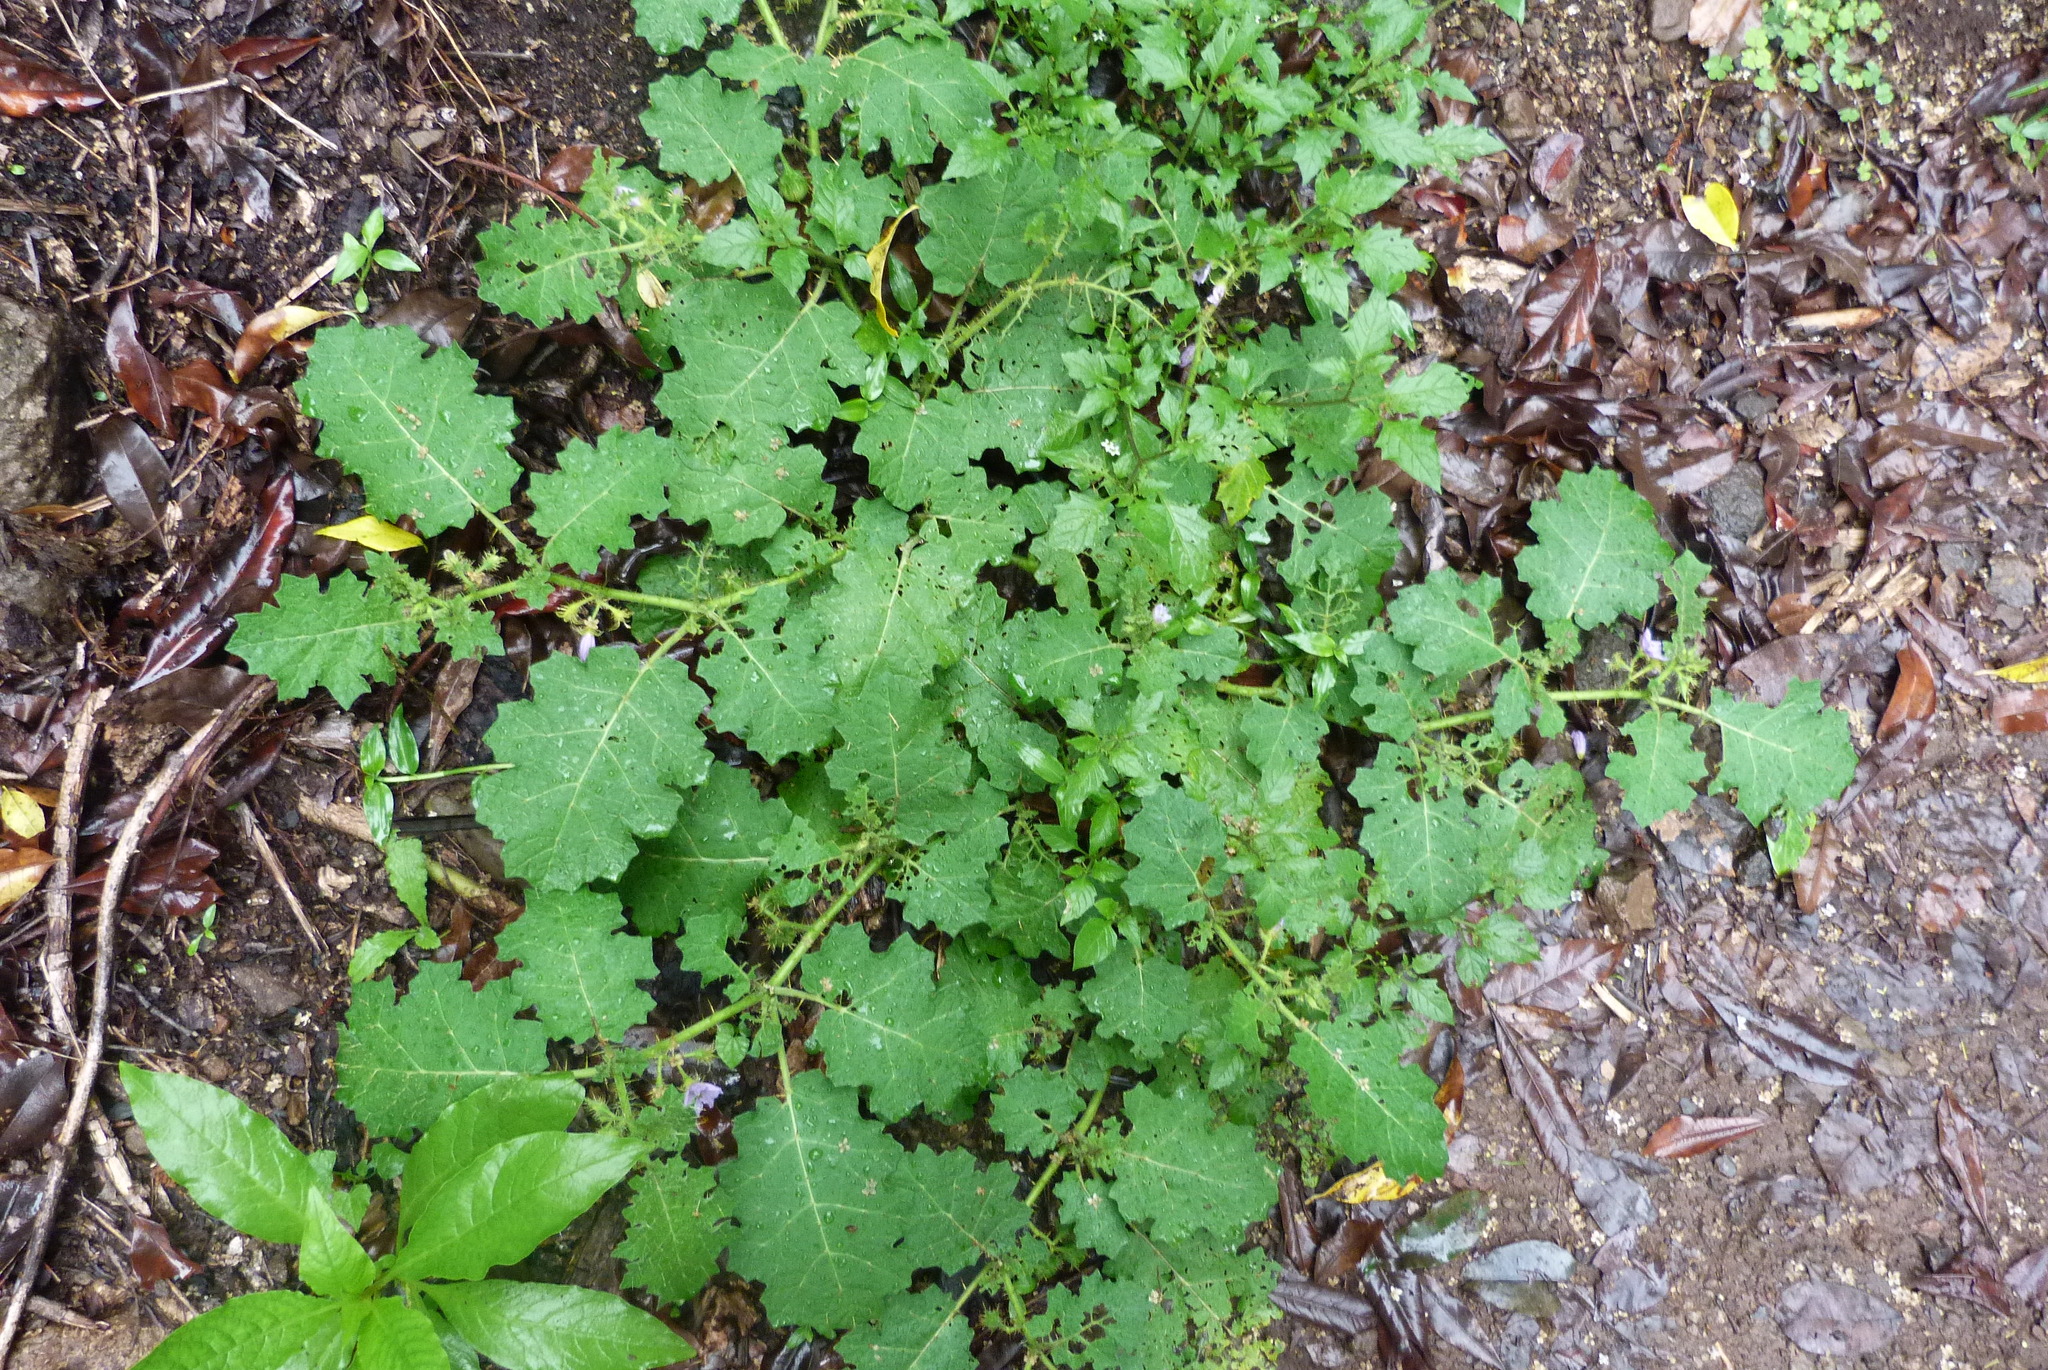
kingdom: Plantae
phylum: Tracheophyta
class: Magnoliopsida
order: Solanales
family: Solanaceae
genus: Solanum
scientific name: Solanum ditrichum
